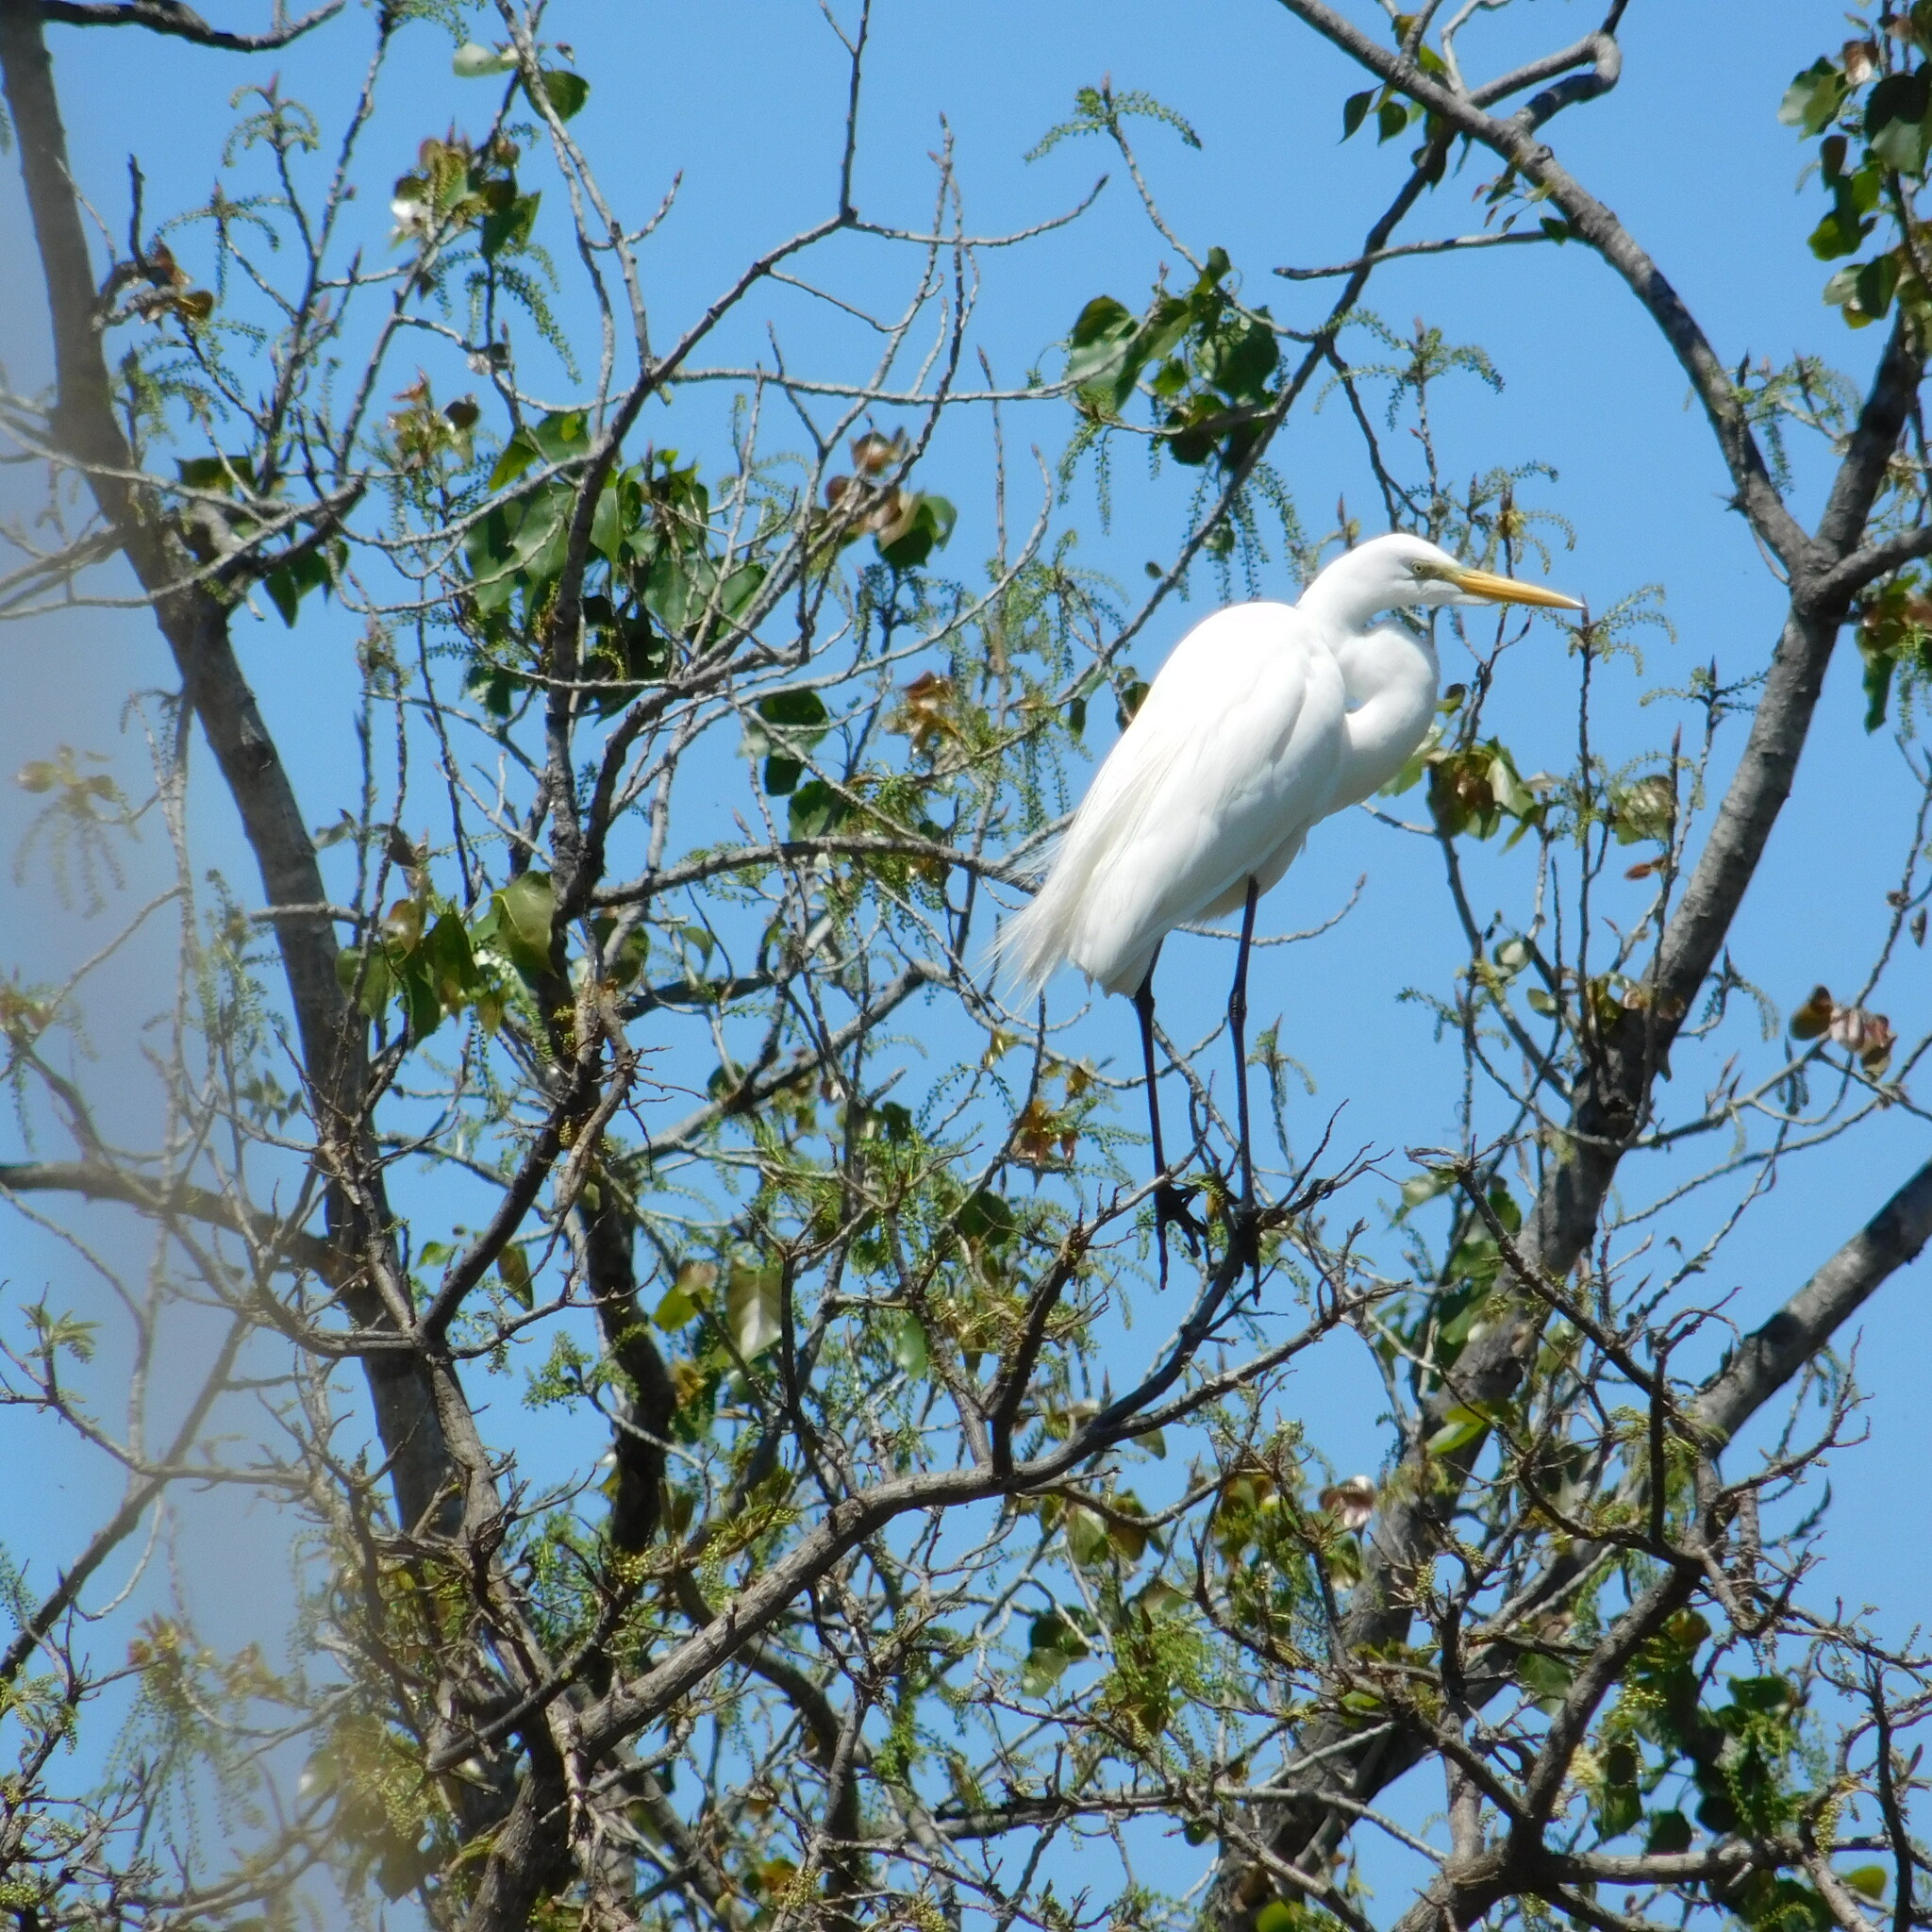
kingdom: Animalia
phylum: Chordata
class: Aves
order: Pelecaniformes
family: Ardeidae
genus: Ardea
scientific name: Ardea alba
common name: Great egret
